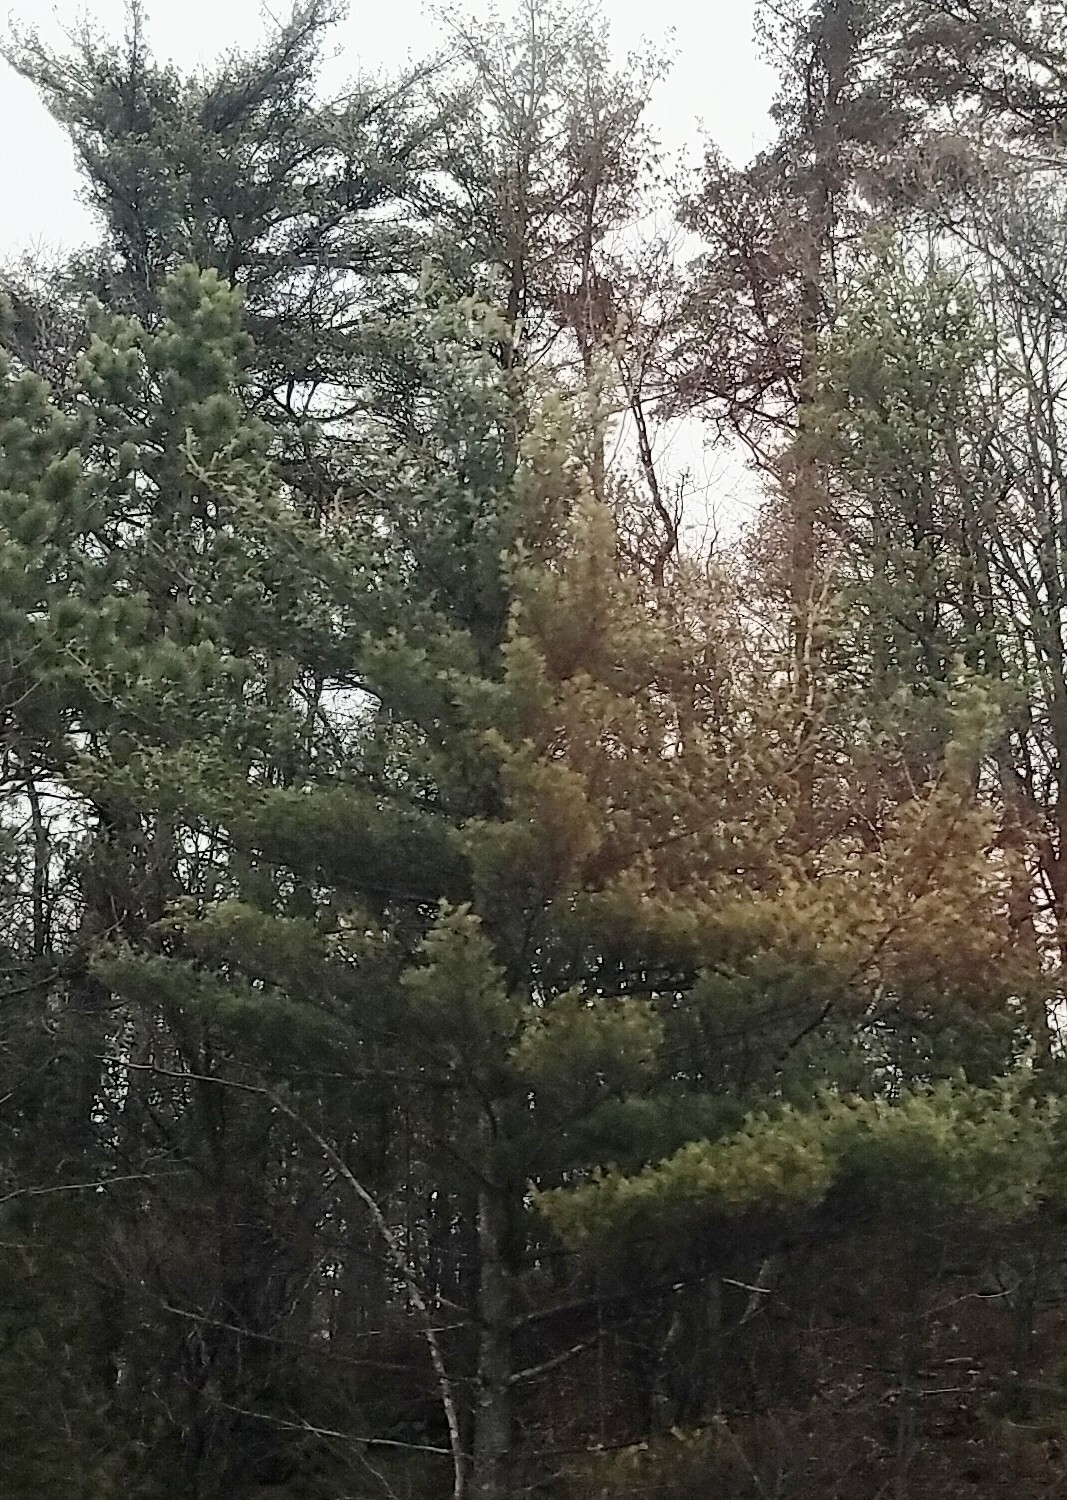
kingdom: Plantae
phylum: Tracheophyta
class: Pinopsida
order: Pinales
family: Pinaceae
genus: Pinus
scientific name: Pinus strobus
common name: Weymouth pine
